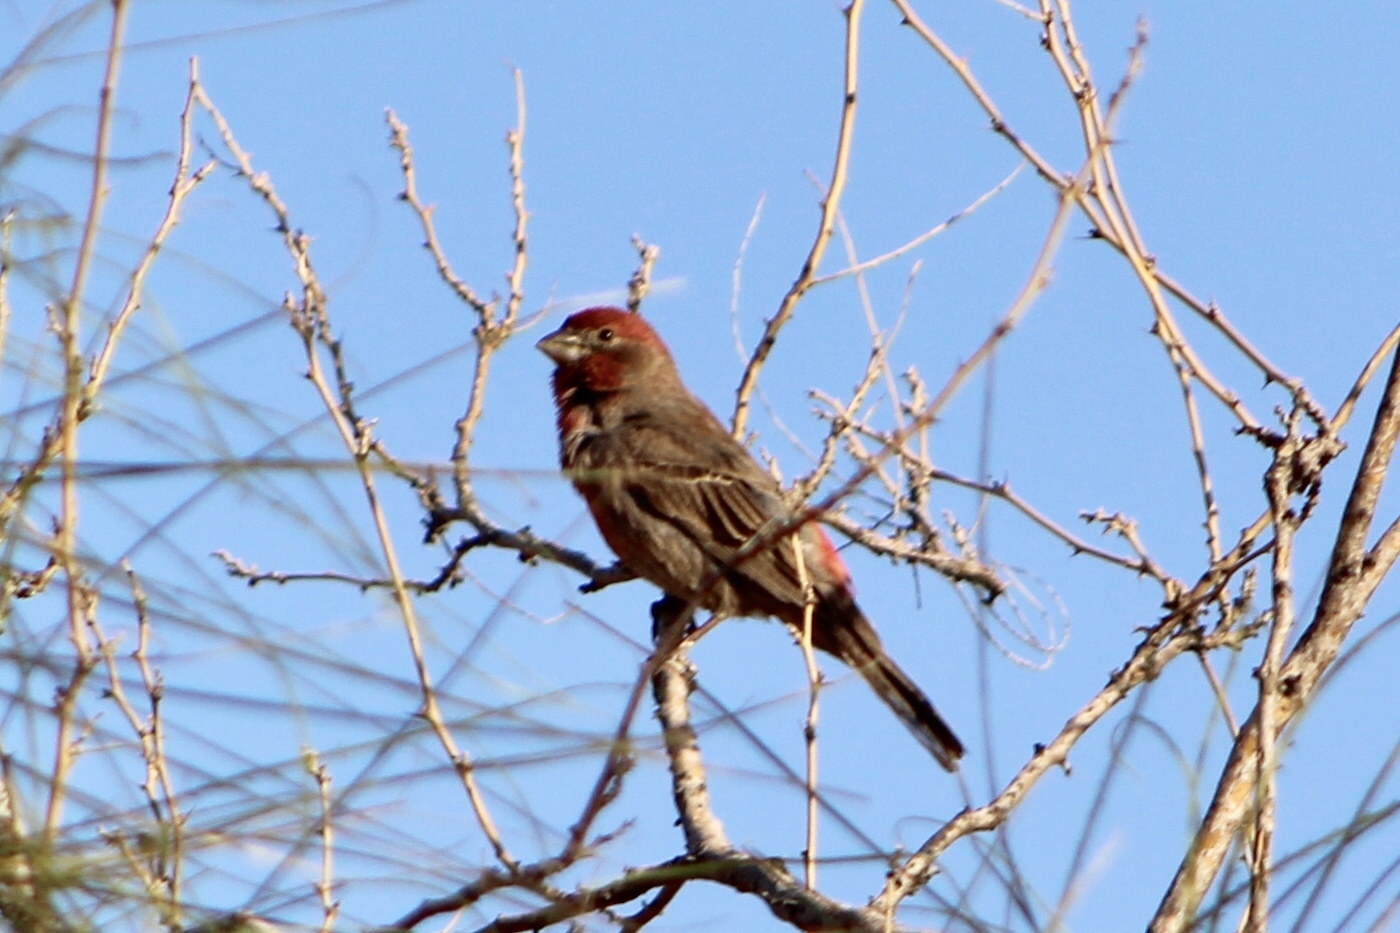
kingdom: Animalia
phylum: Chordata
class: Aves
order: Passeriformes
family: Fringillidae
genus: Haemorhous
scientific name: Haemorhous mexicanus
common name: House finch
